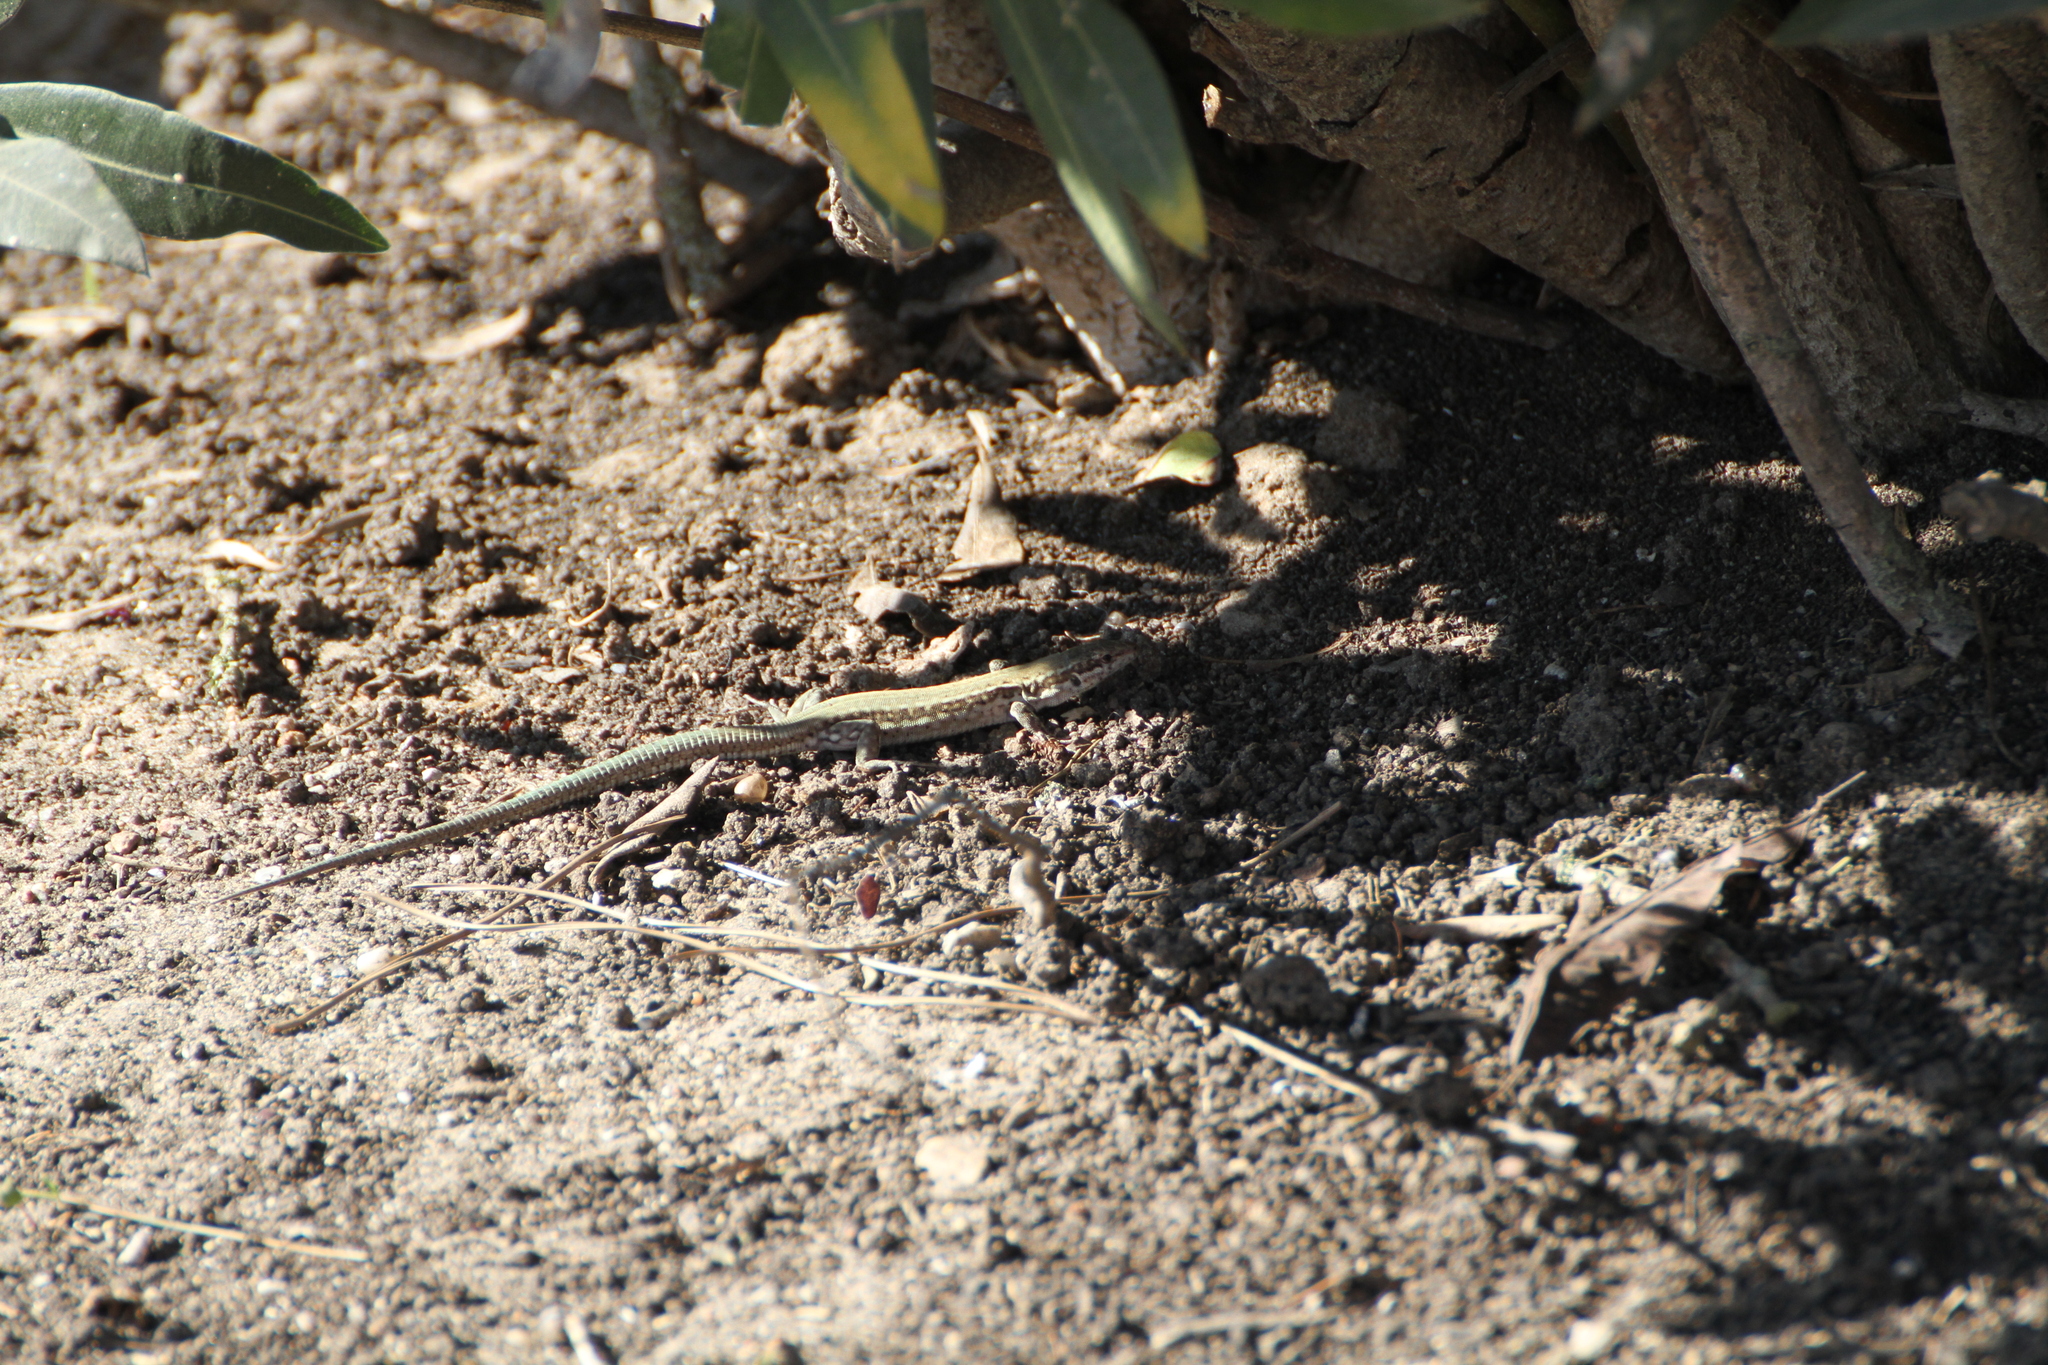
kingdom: Animalia
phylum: Chordata
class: Squamata
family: Lacertidae
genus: Podarcis
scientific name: Podarcis vaucheri
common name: Vaucher's wall lizard
